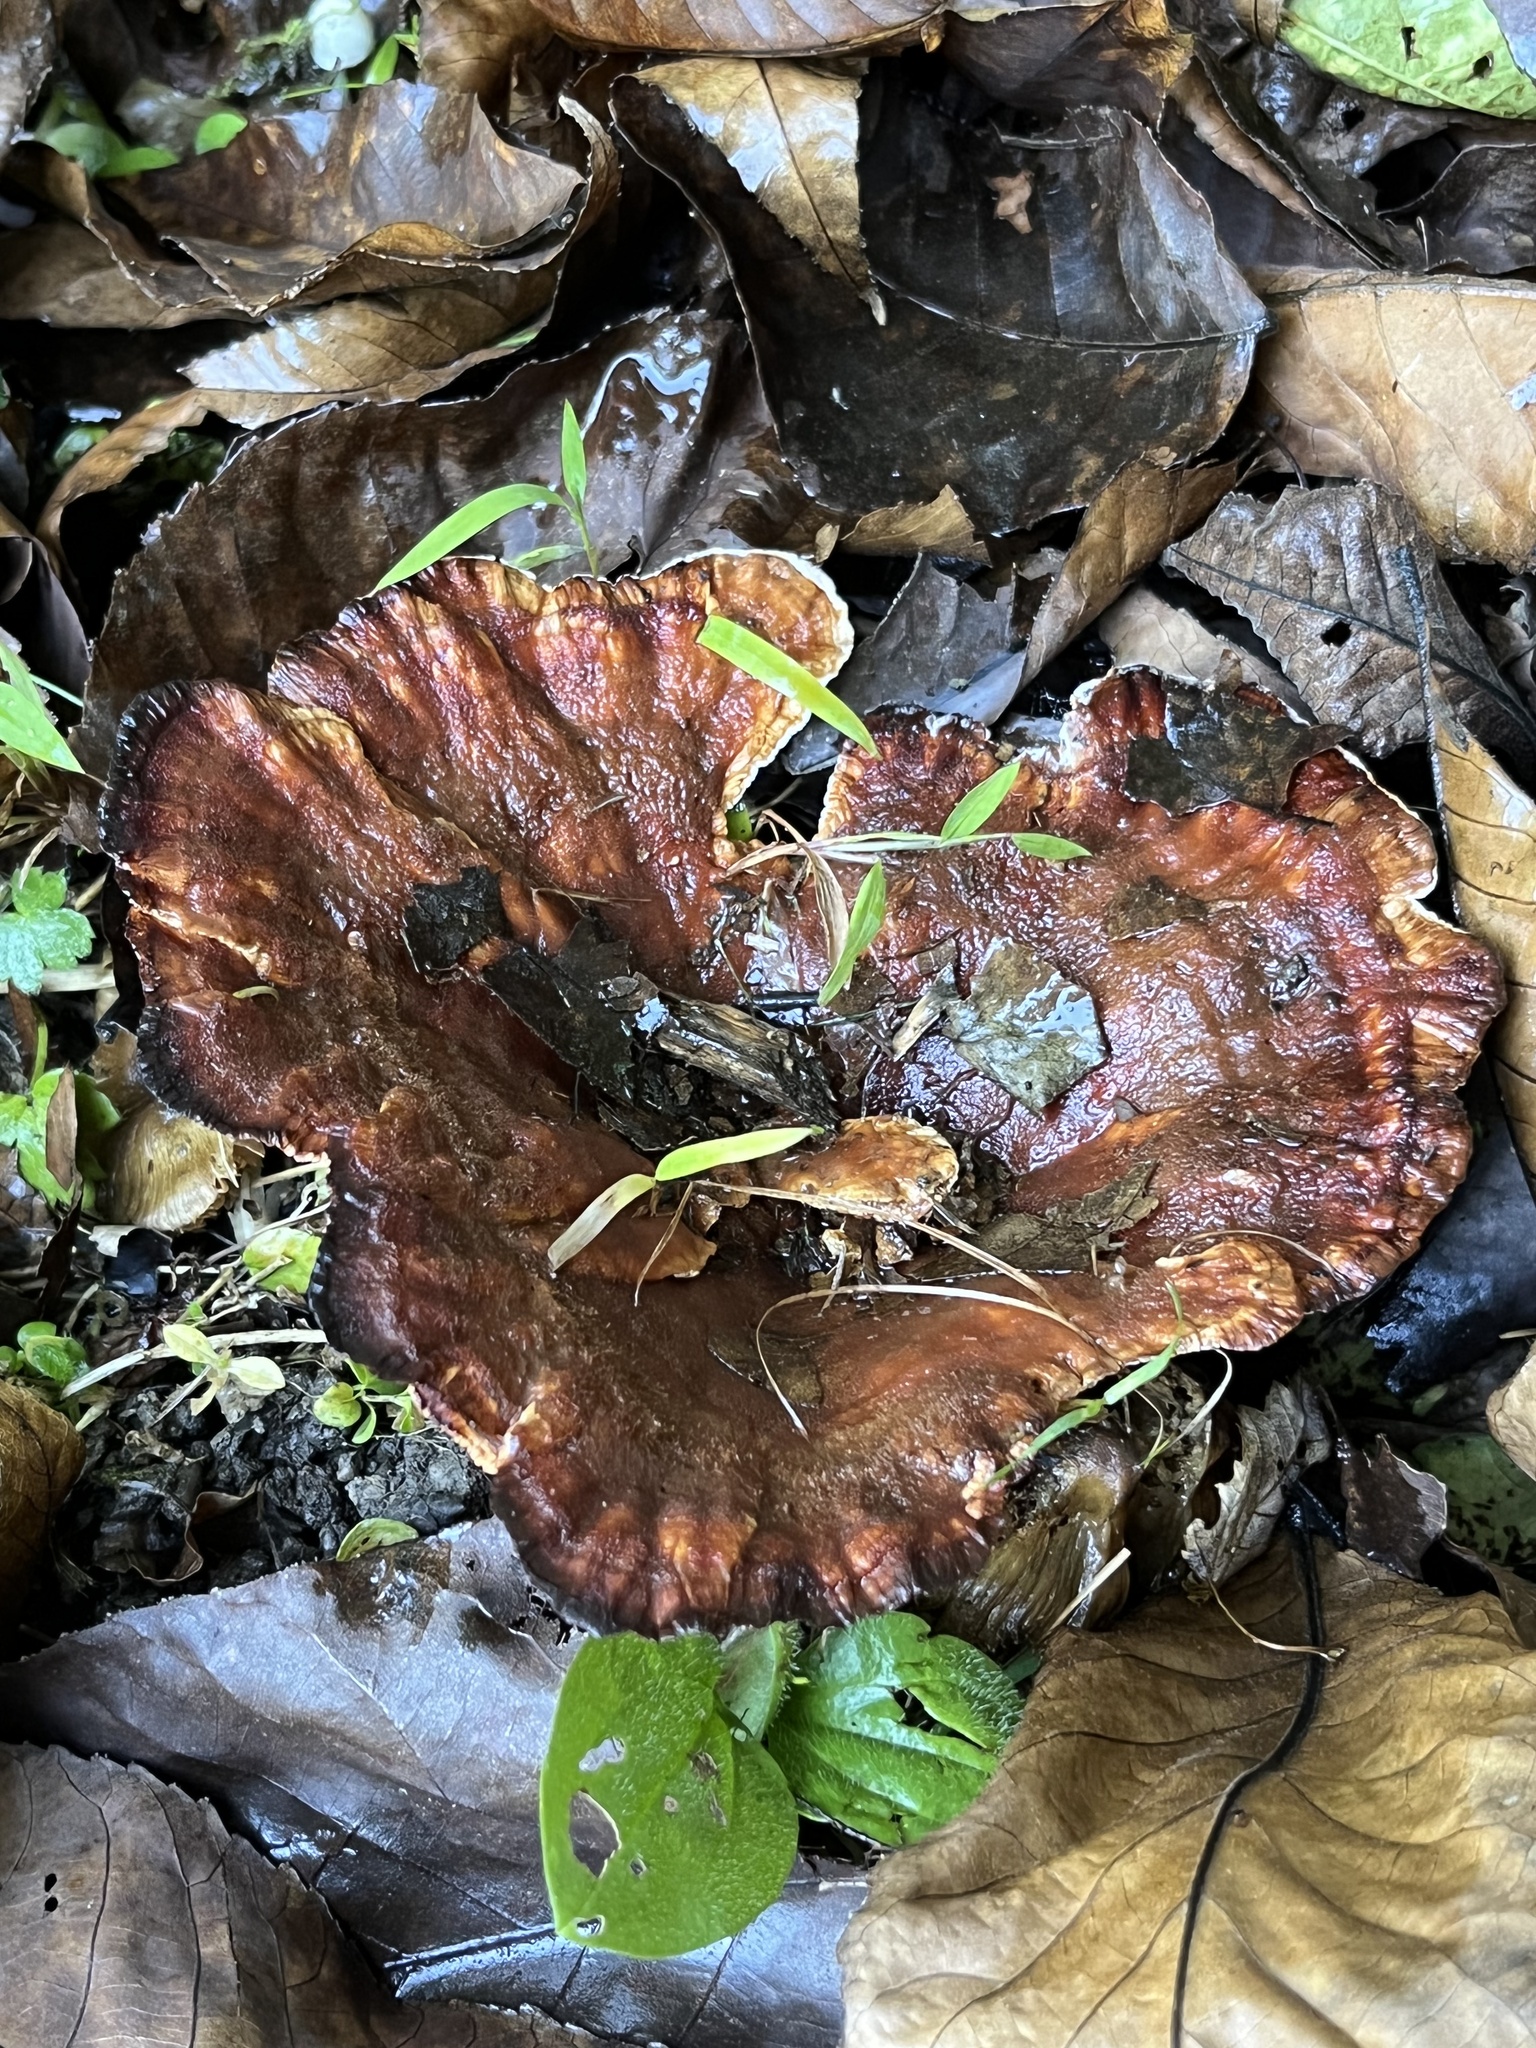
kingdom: Fungi
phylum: Basidiomycota
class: Agaricomycetes
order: Polyporales
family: Podoscyphaceae
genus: Abortiporus
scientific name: Abortiporus biennis
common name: Blushing rosette
